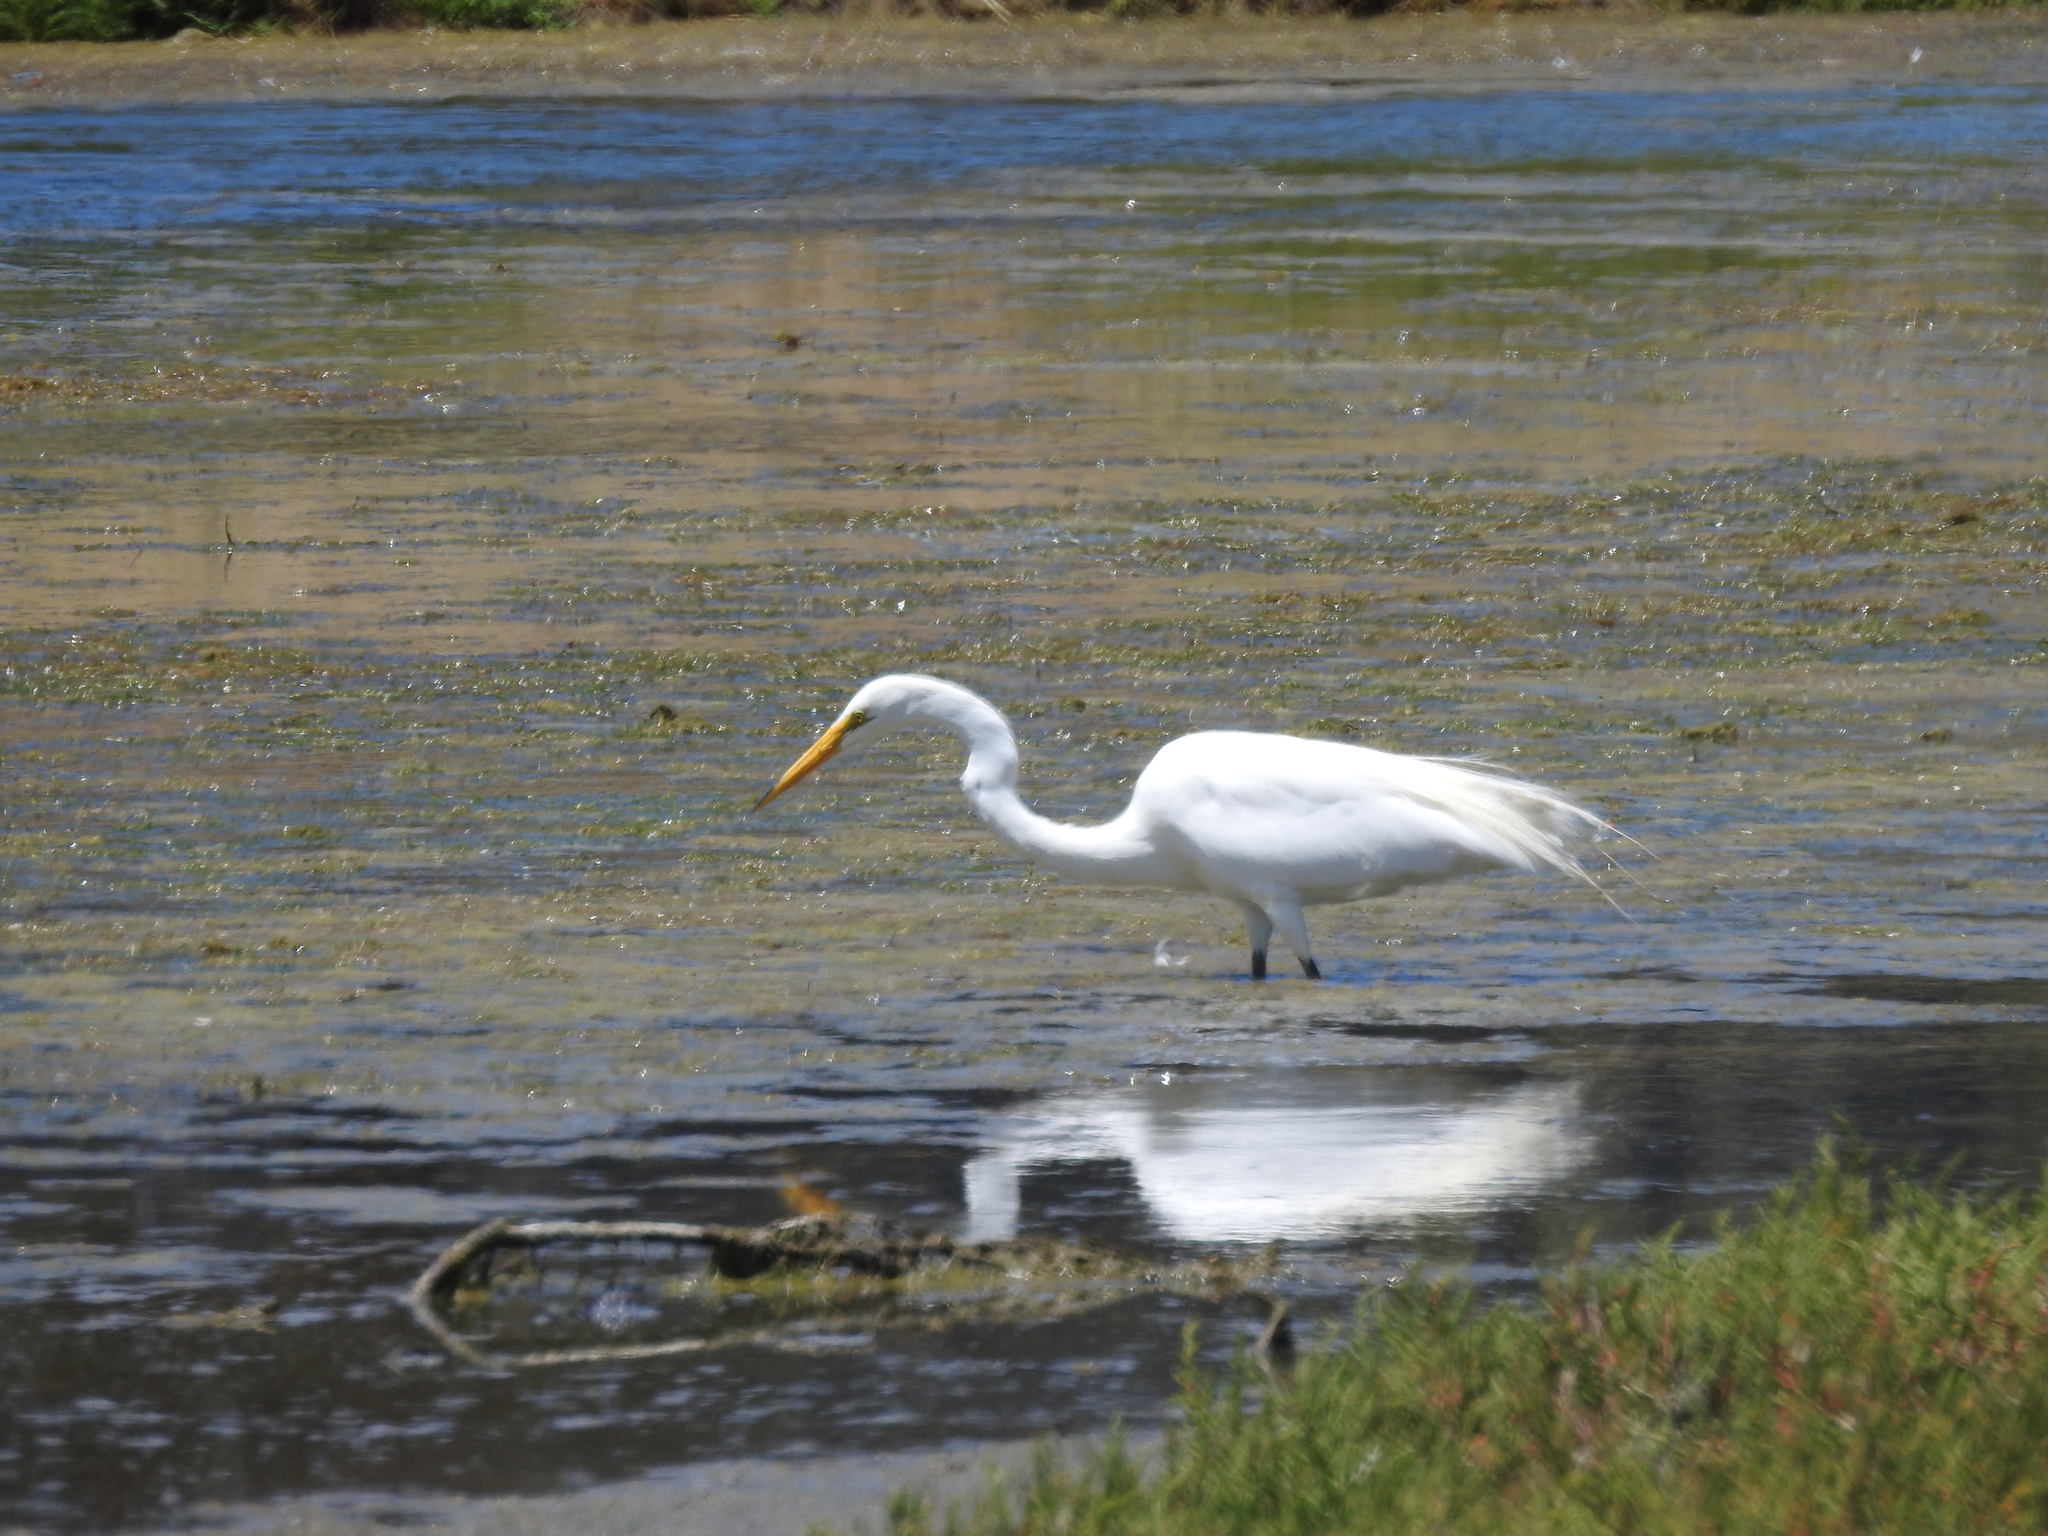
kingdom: Animalia
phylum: Chordata
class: Aves
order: Pelecaniformes
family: Ardeidae
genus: Ardea
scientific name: Ardea alba
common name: Great egret
